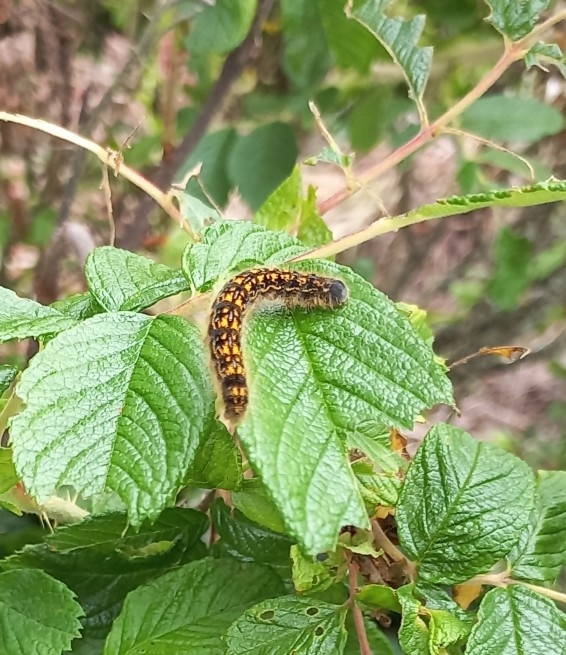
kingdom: Animalia
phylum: Arthropoda
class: Insecta
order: Lepidoptera
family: Lasiocampidae
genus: Malacosoma
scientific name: Malacosoma californica
